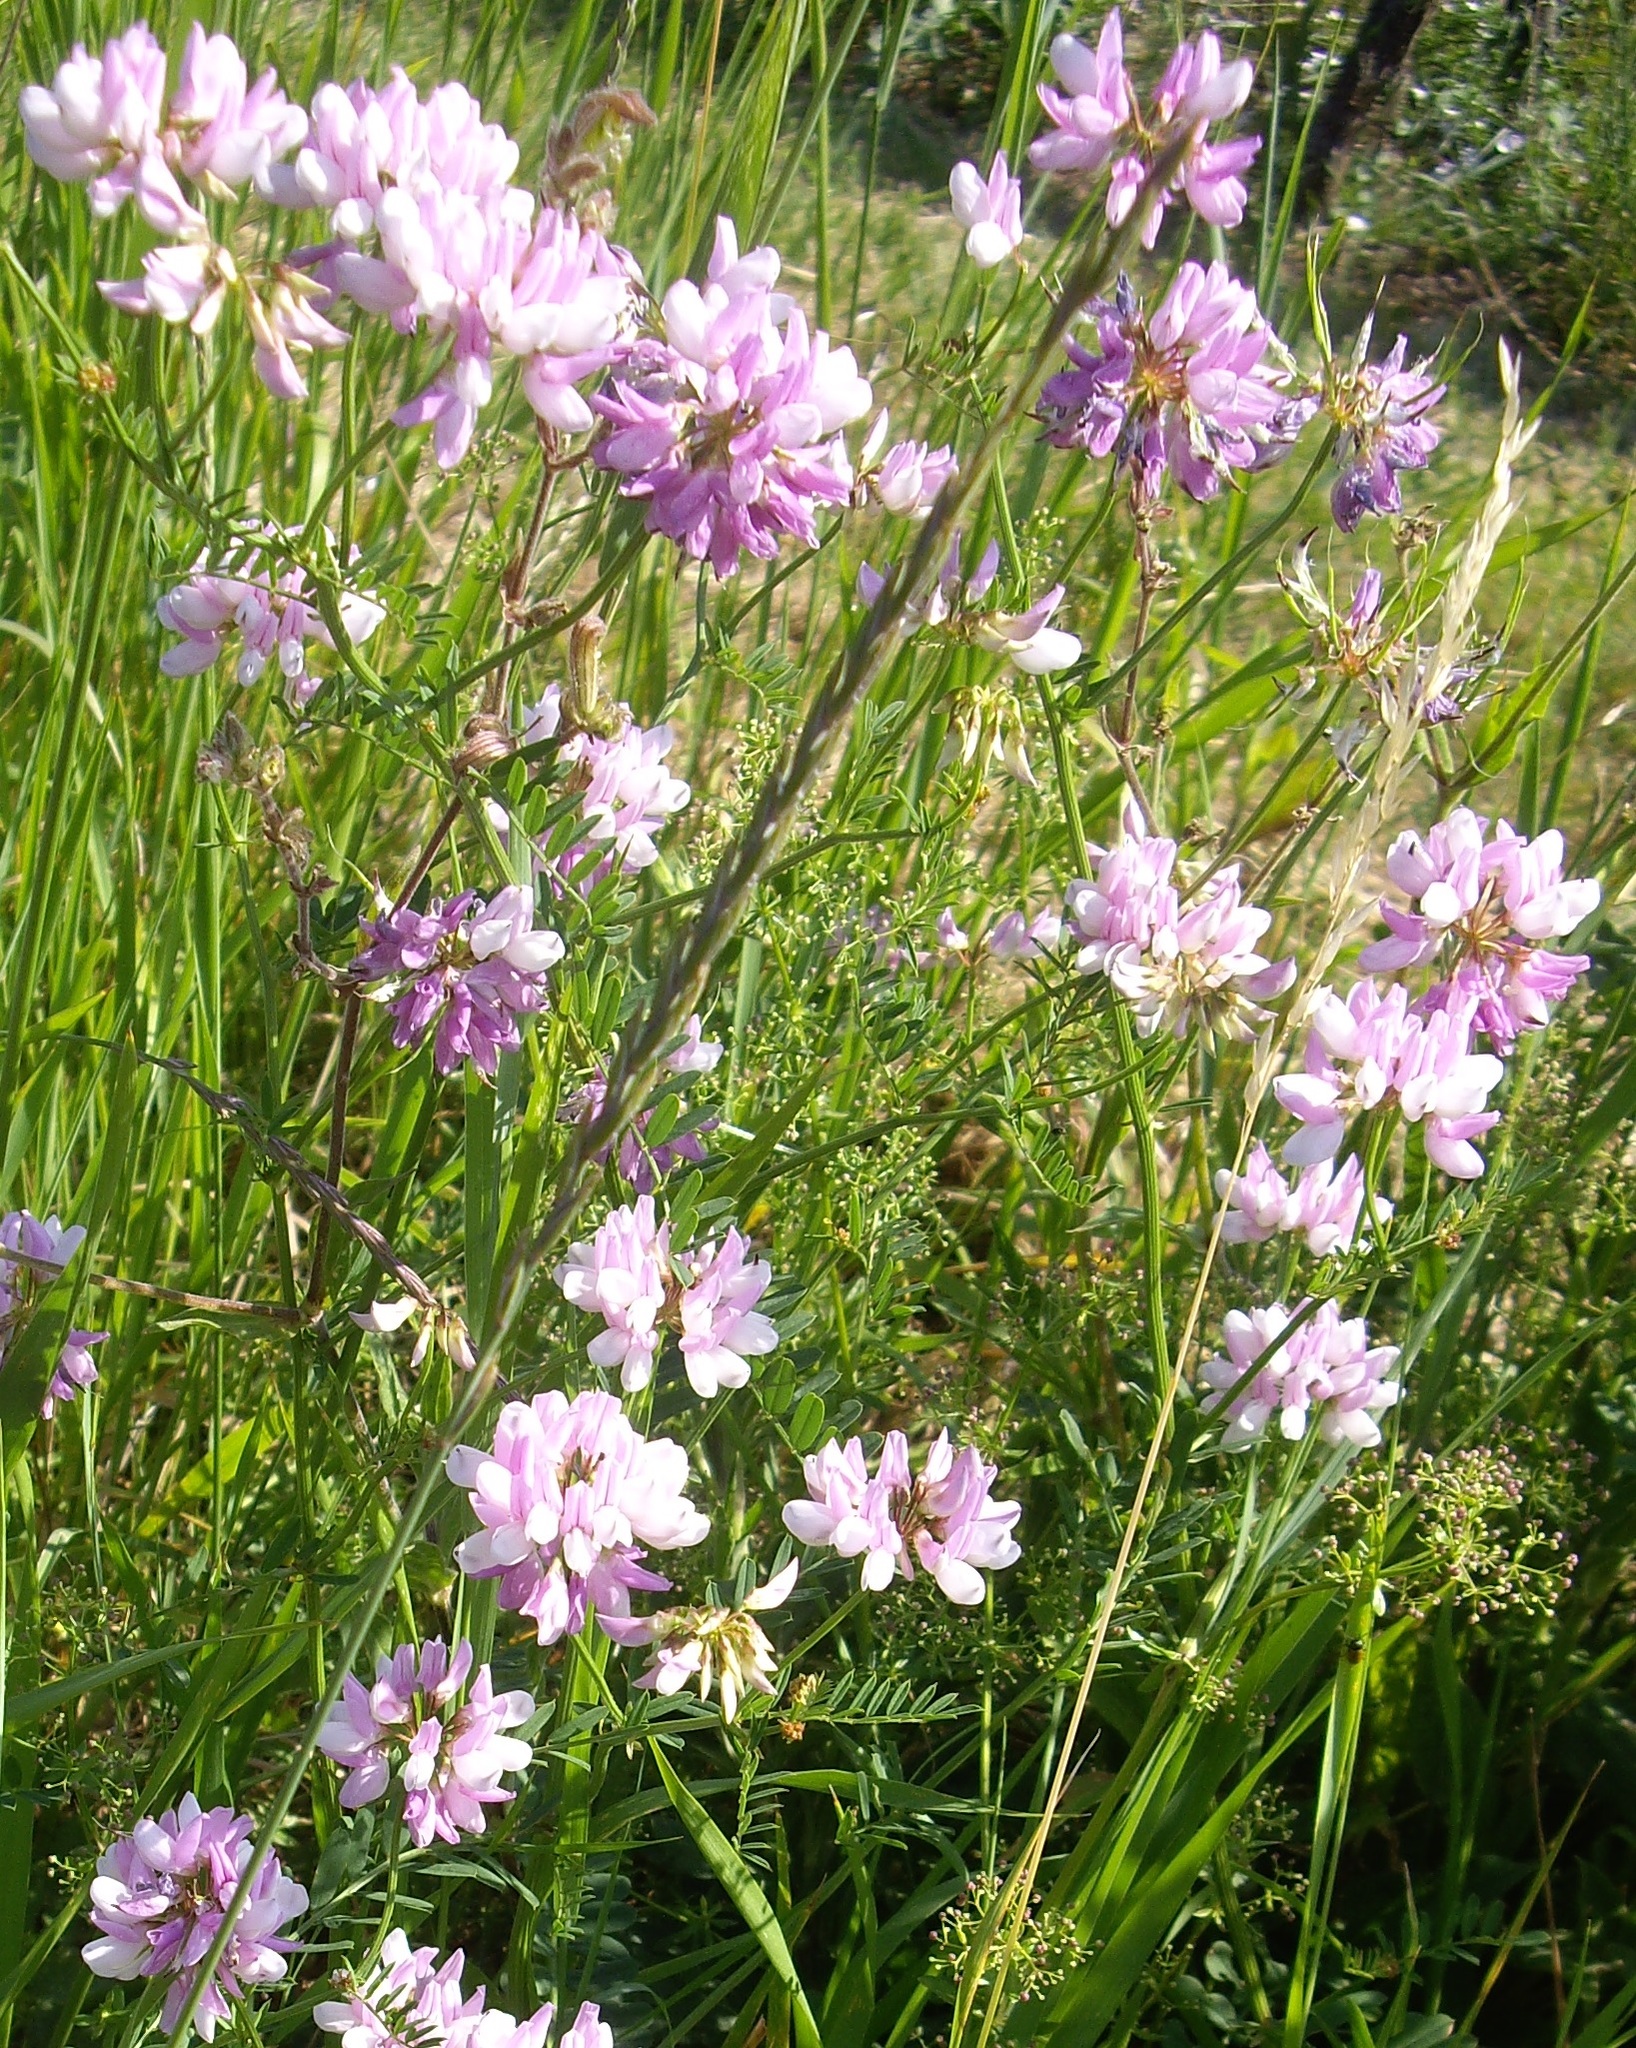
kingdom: Plantae
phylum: Tracheophyta
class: Magnoliopsida
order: Fabales
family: Fabaceae
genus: Coronilla
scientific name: Coronilla varia
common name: Crownvetch
